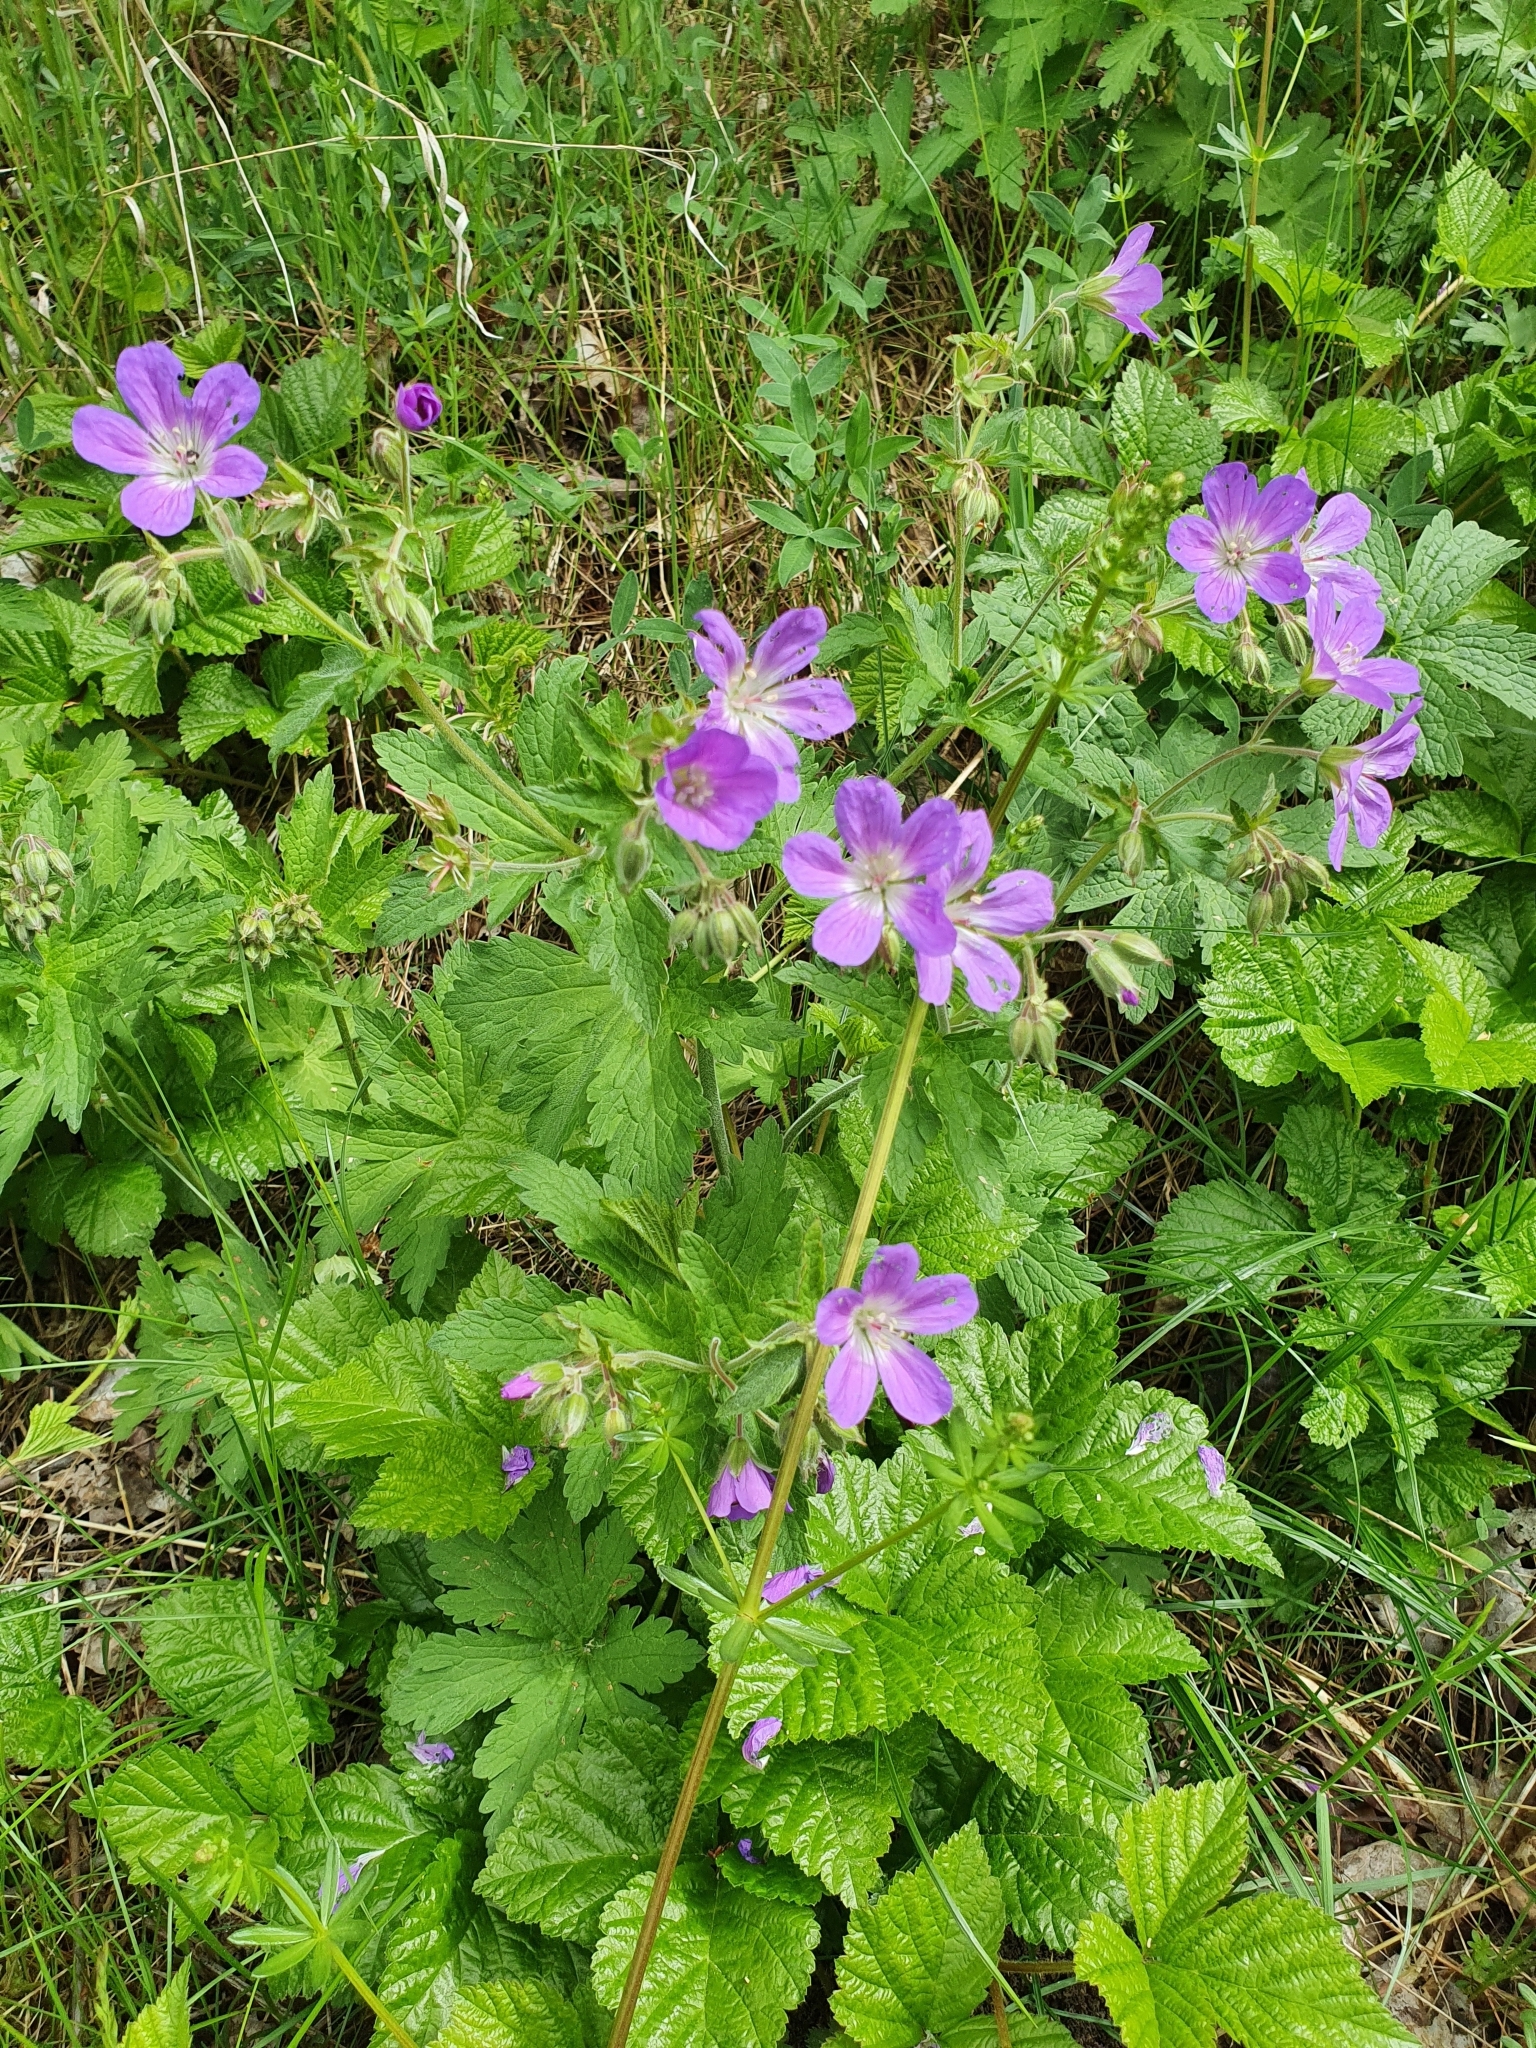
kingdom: Plantae
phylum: Tracheophyta
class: Magnoliopsida
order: Geraniales
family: Geraniaceae
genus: Geranium
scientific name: Geranium sylvaticum
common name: Wood crane's-bill
